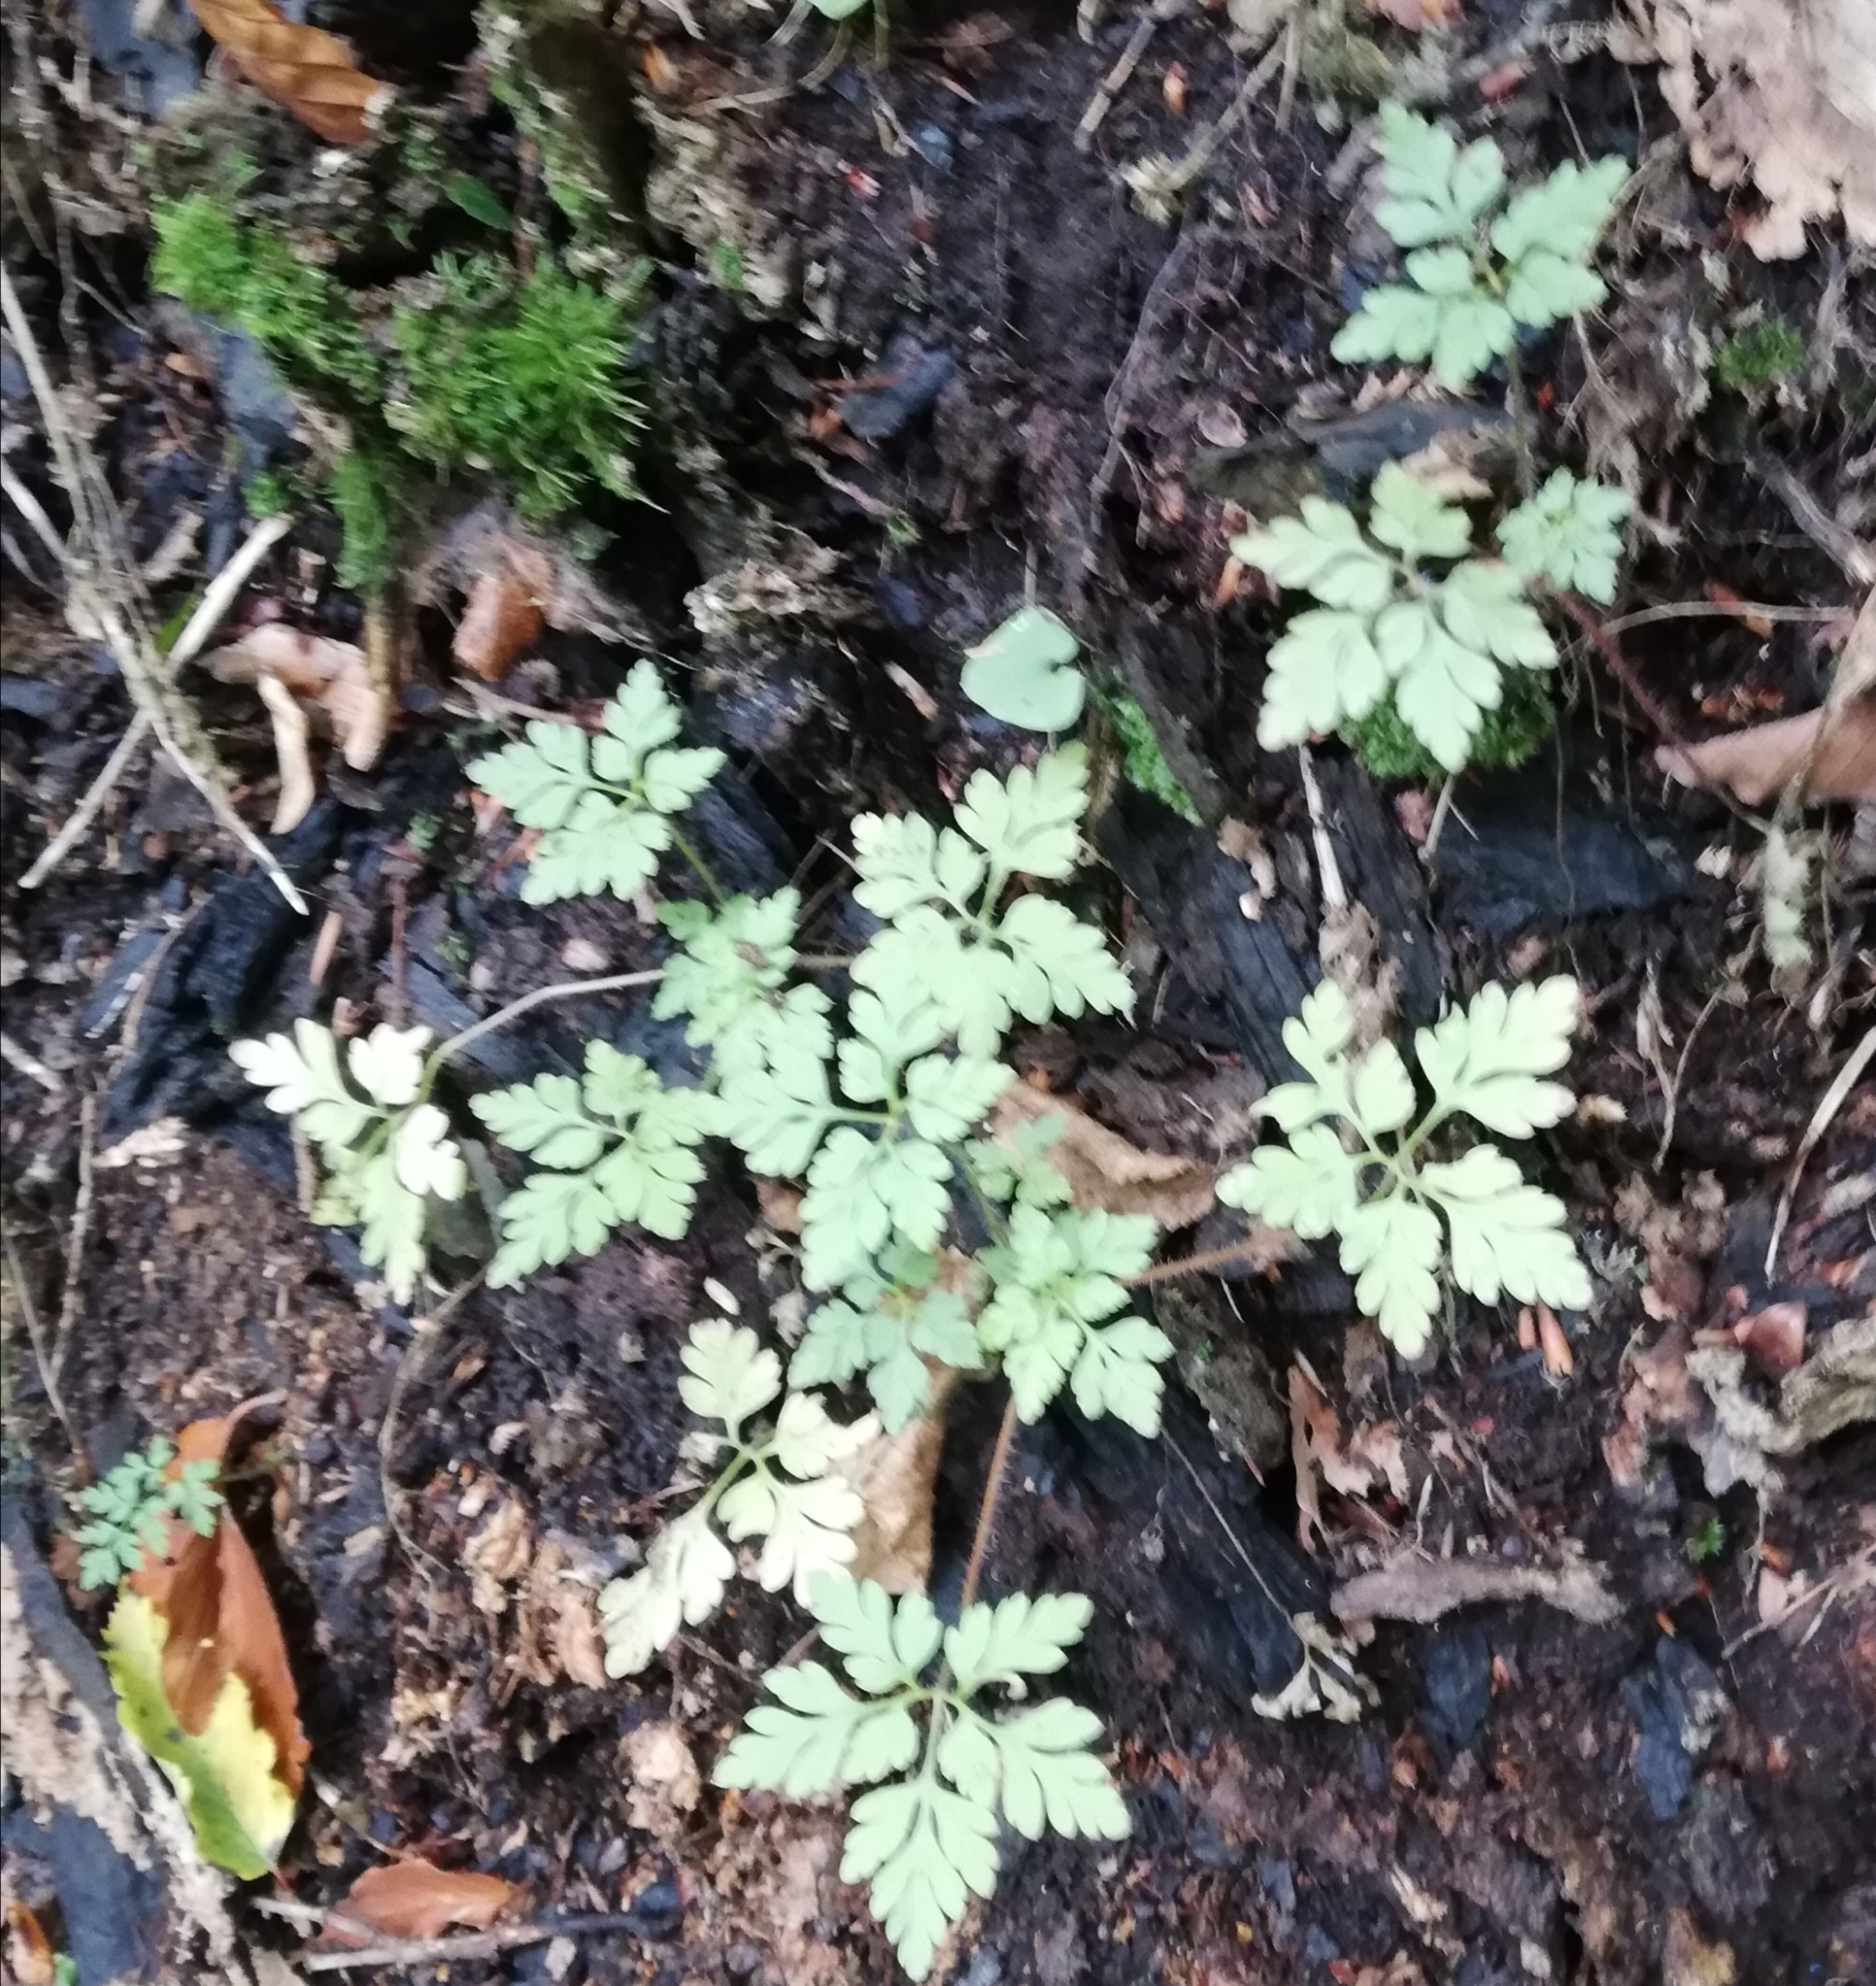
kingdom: Plantae
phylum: Tracheophyta
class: Magnoliopsida
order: Geraniales
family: Geraniaceae
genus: Geranium
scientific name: Geranium robertianum
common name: Herb-robert
